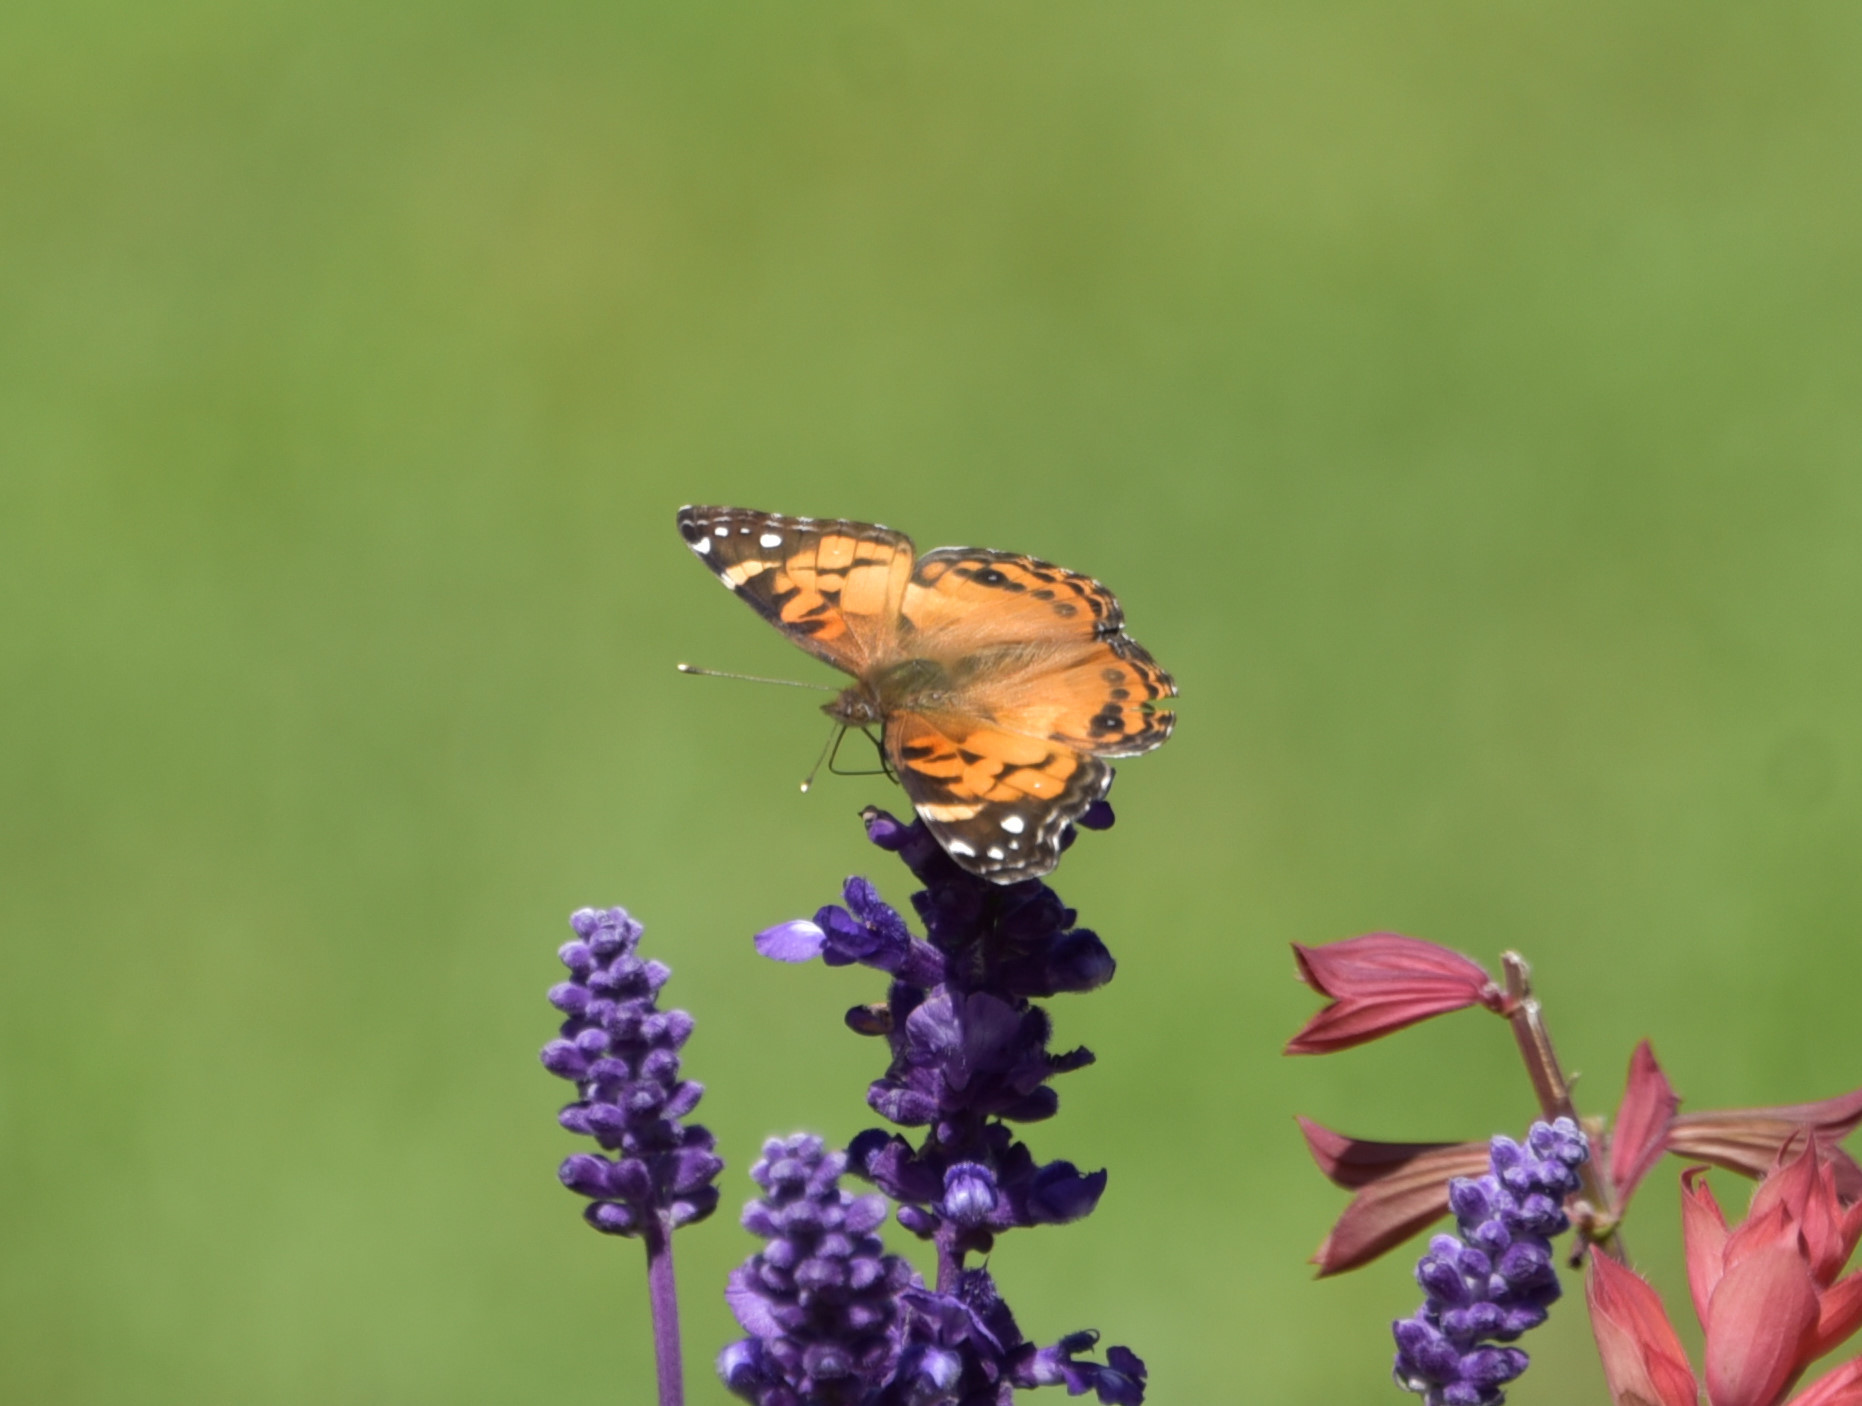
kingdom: Animalia
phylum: Arthropoda
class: Insecta
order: Lepidoptera
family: Nymphalidae
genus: Vanessa
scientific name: Vanessa virginiensis
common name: American lady
